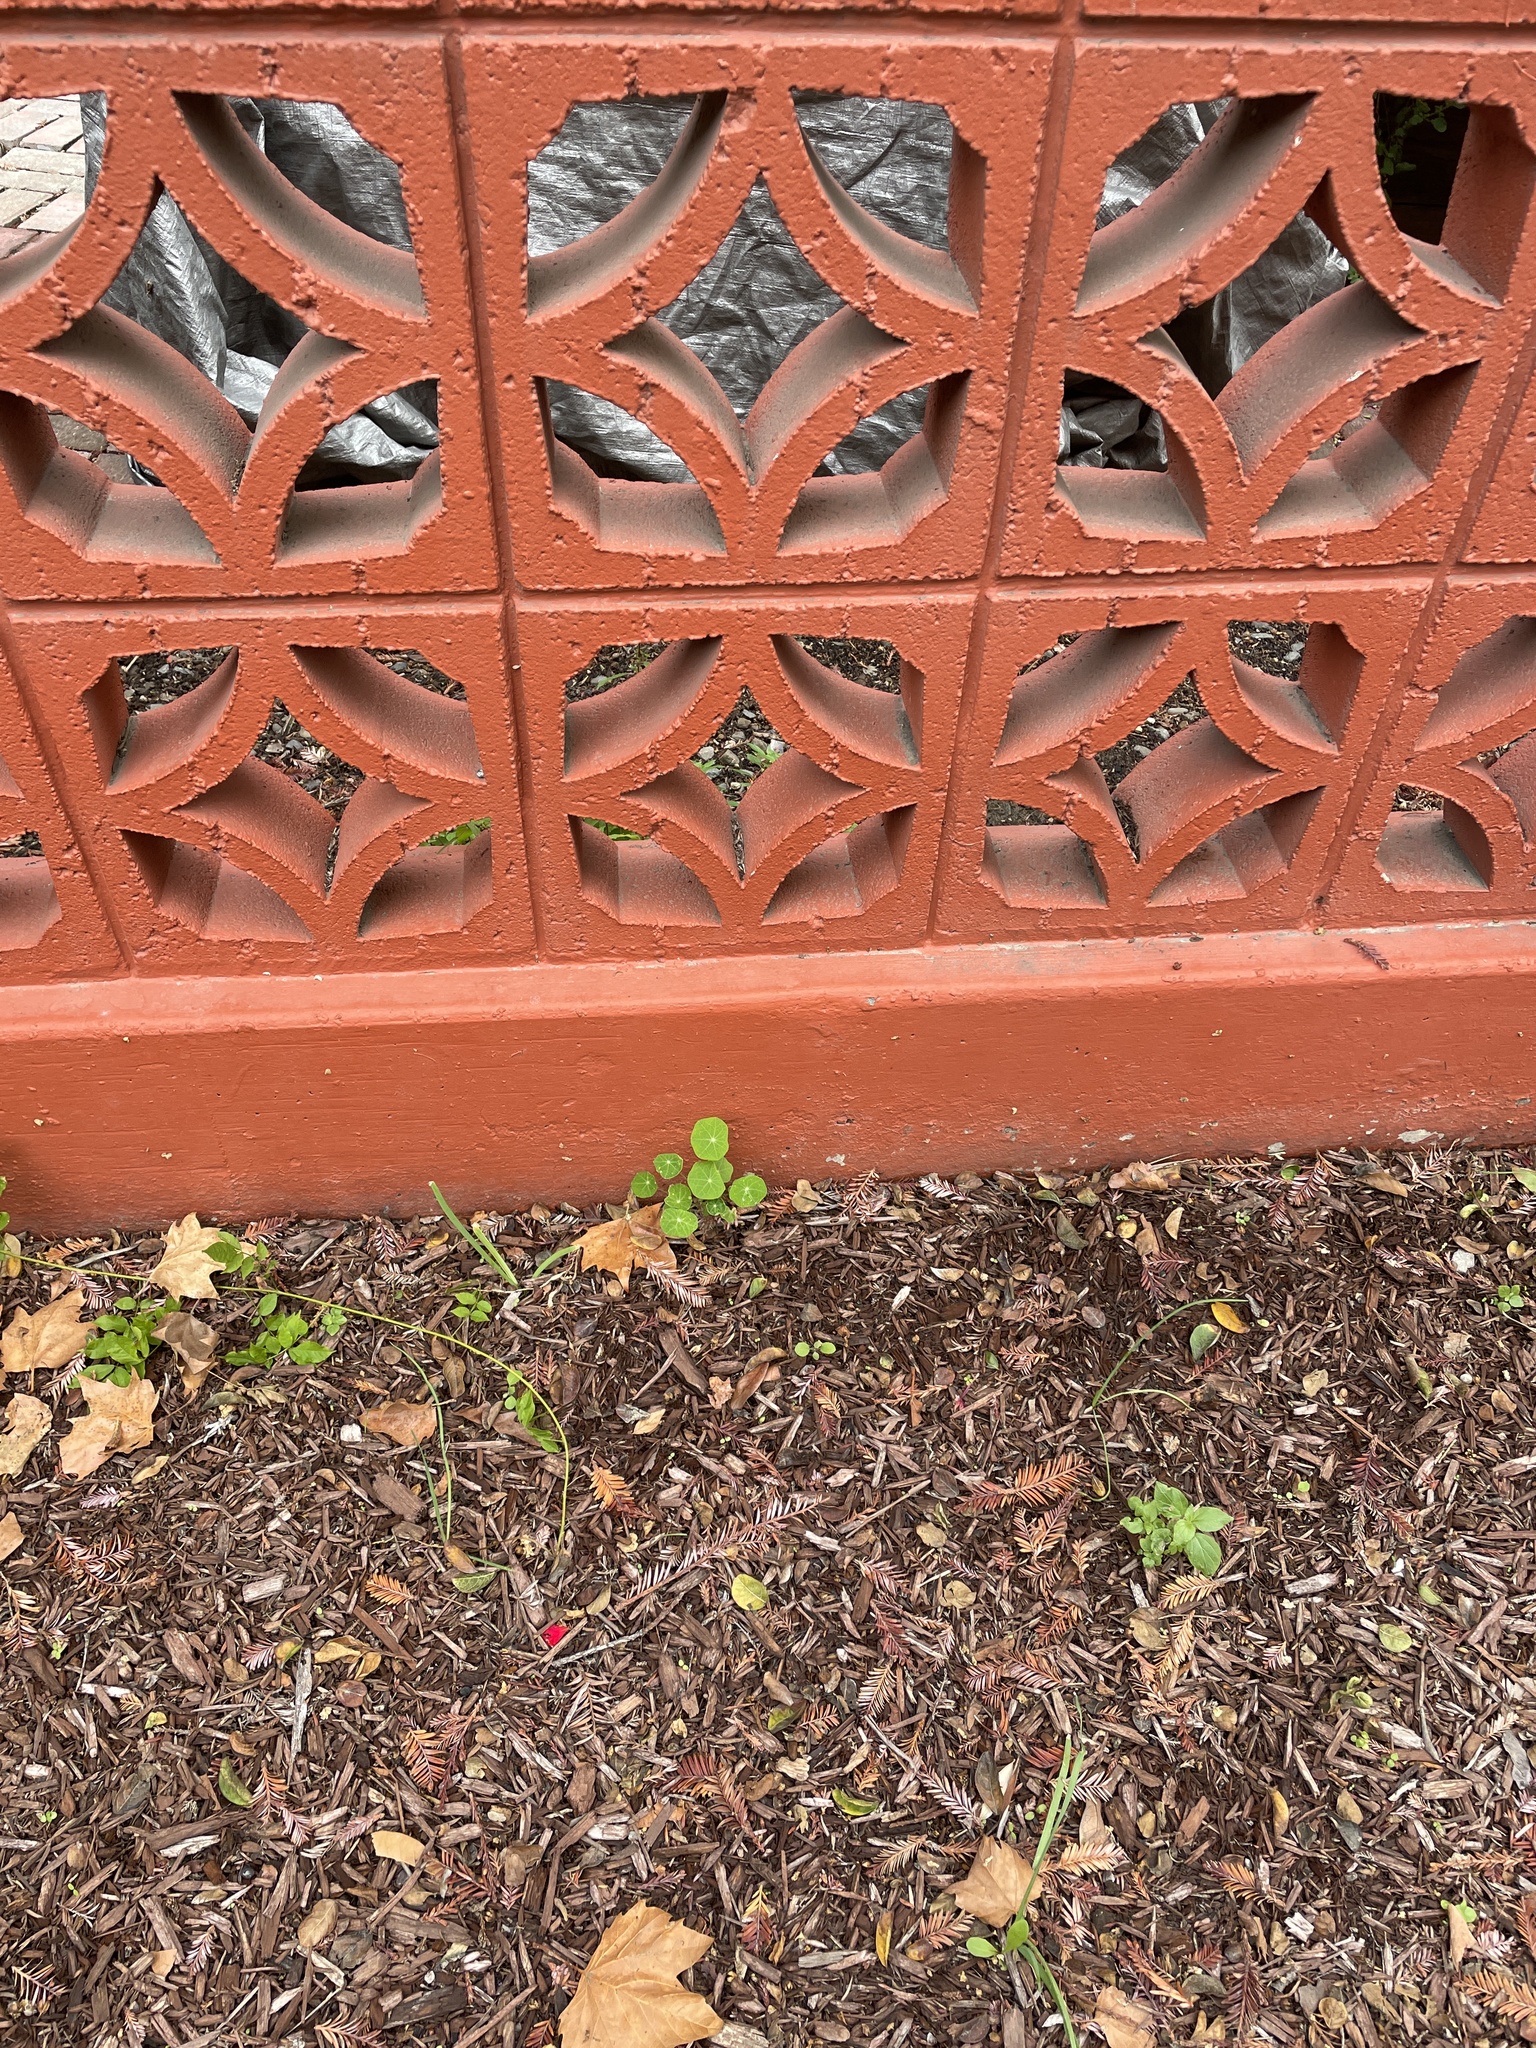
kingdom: Plantae
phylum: Tracheophyta
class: Magnoliopsida
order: Brassicales
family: Tropaeolaceae
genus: Tropaeolum
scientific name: Tropaeolum majus
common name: Nasturtium
